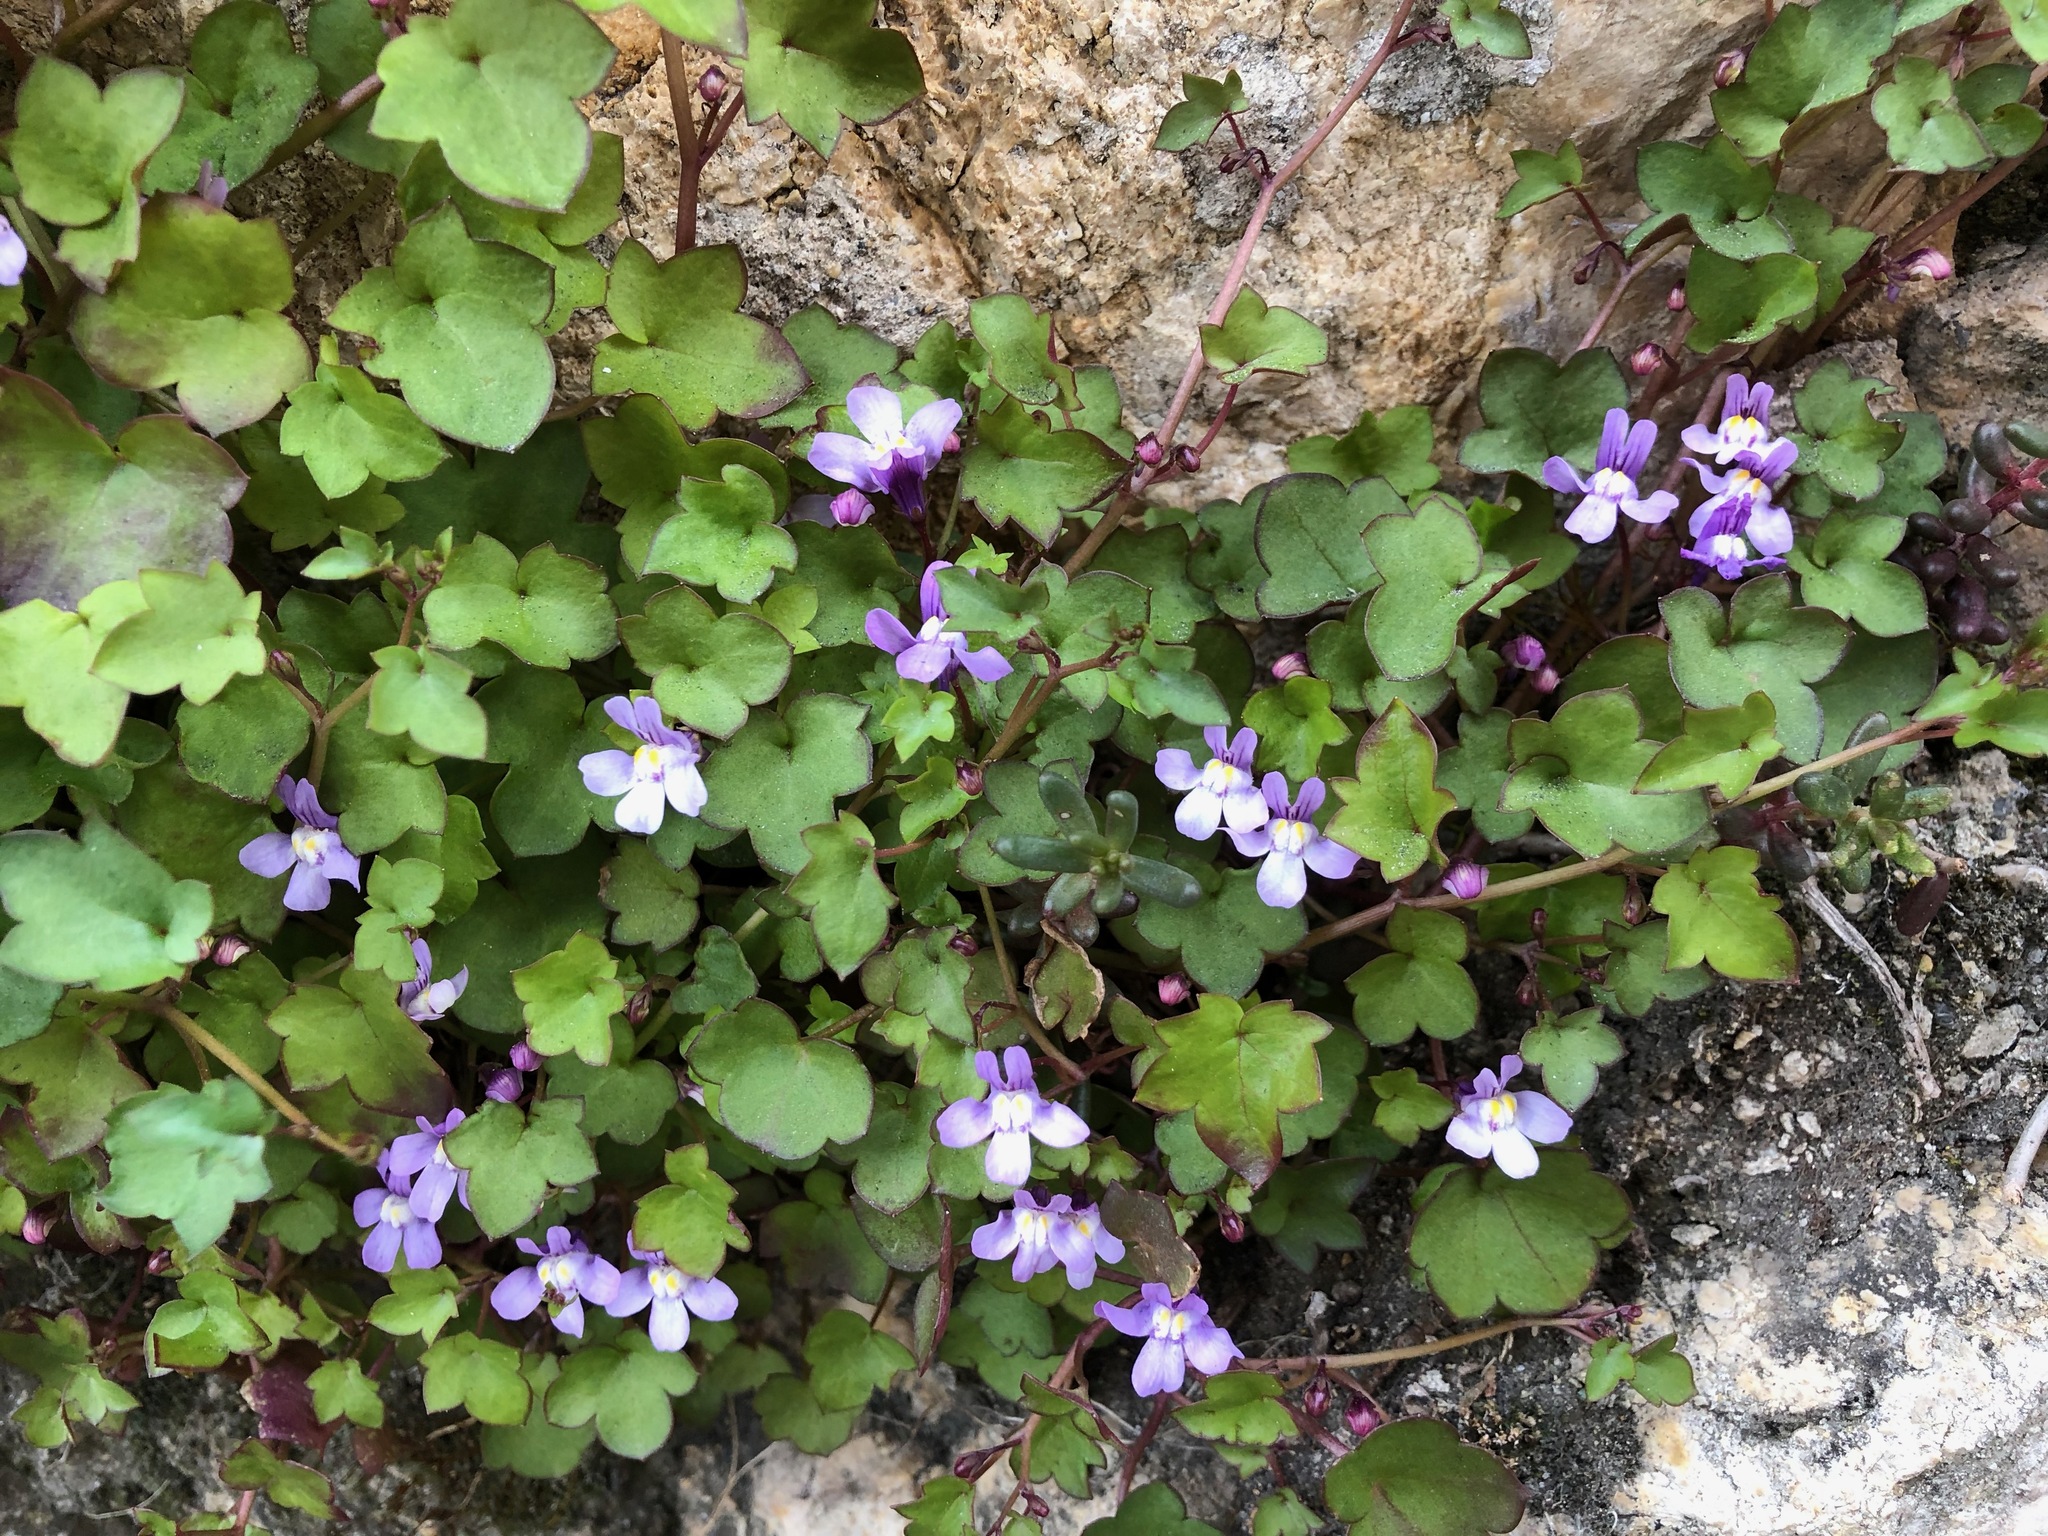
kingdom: Plantae
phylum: Tracheophyta
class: Magnoliopsida
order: Lamiales
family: Plantaginaceae
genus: Cymbalaria
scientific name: Cymbalaria muralis
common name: Ivy-leaved toadflax
